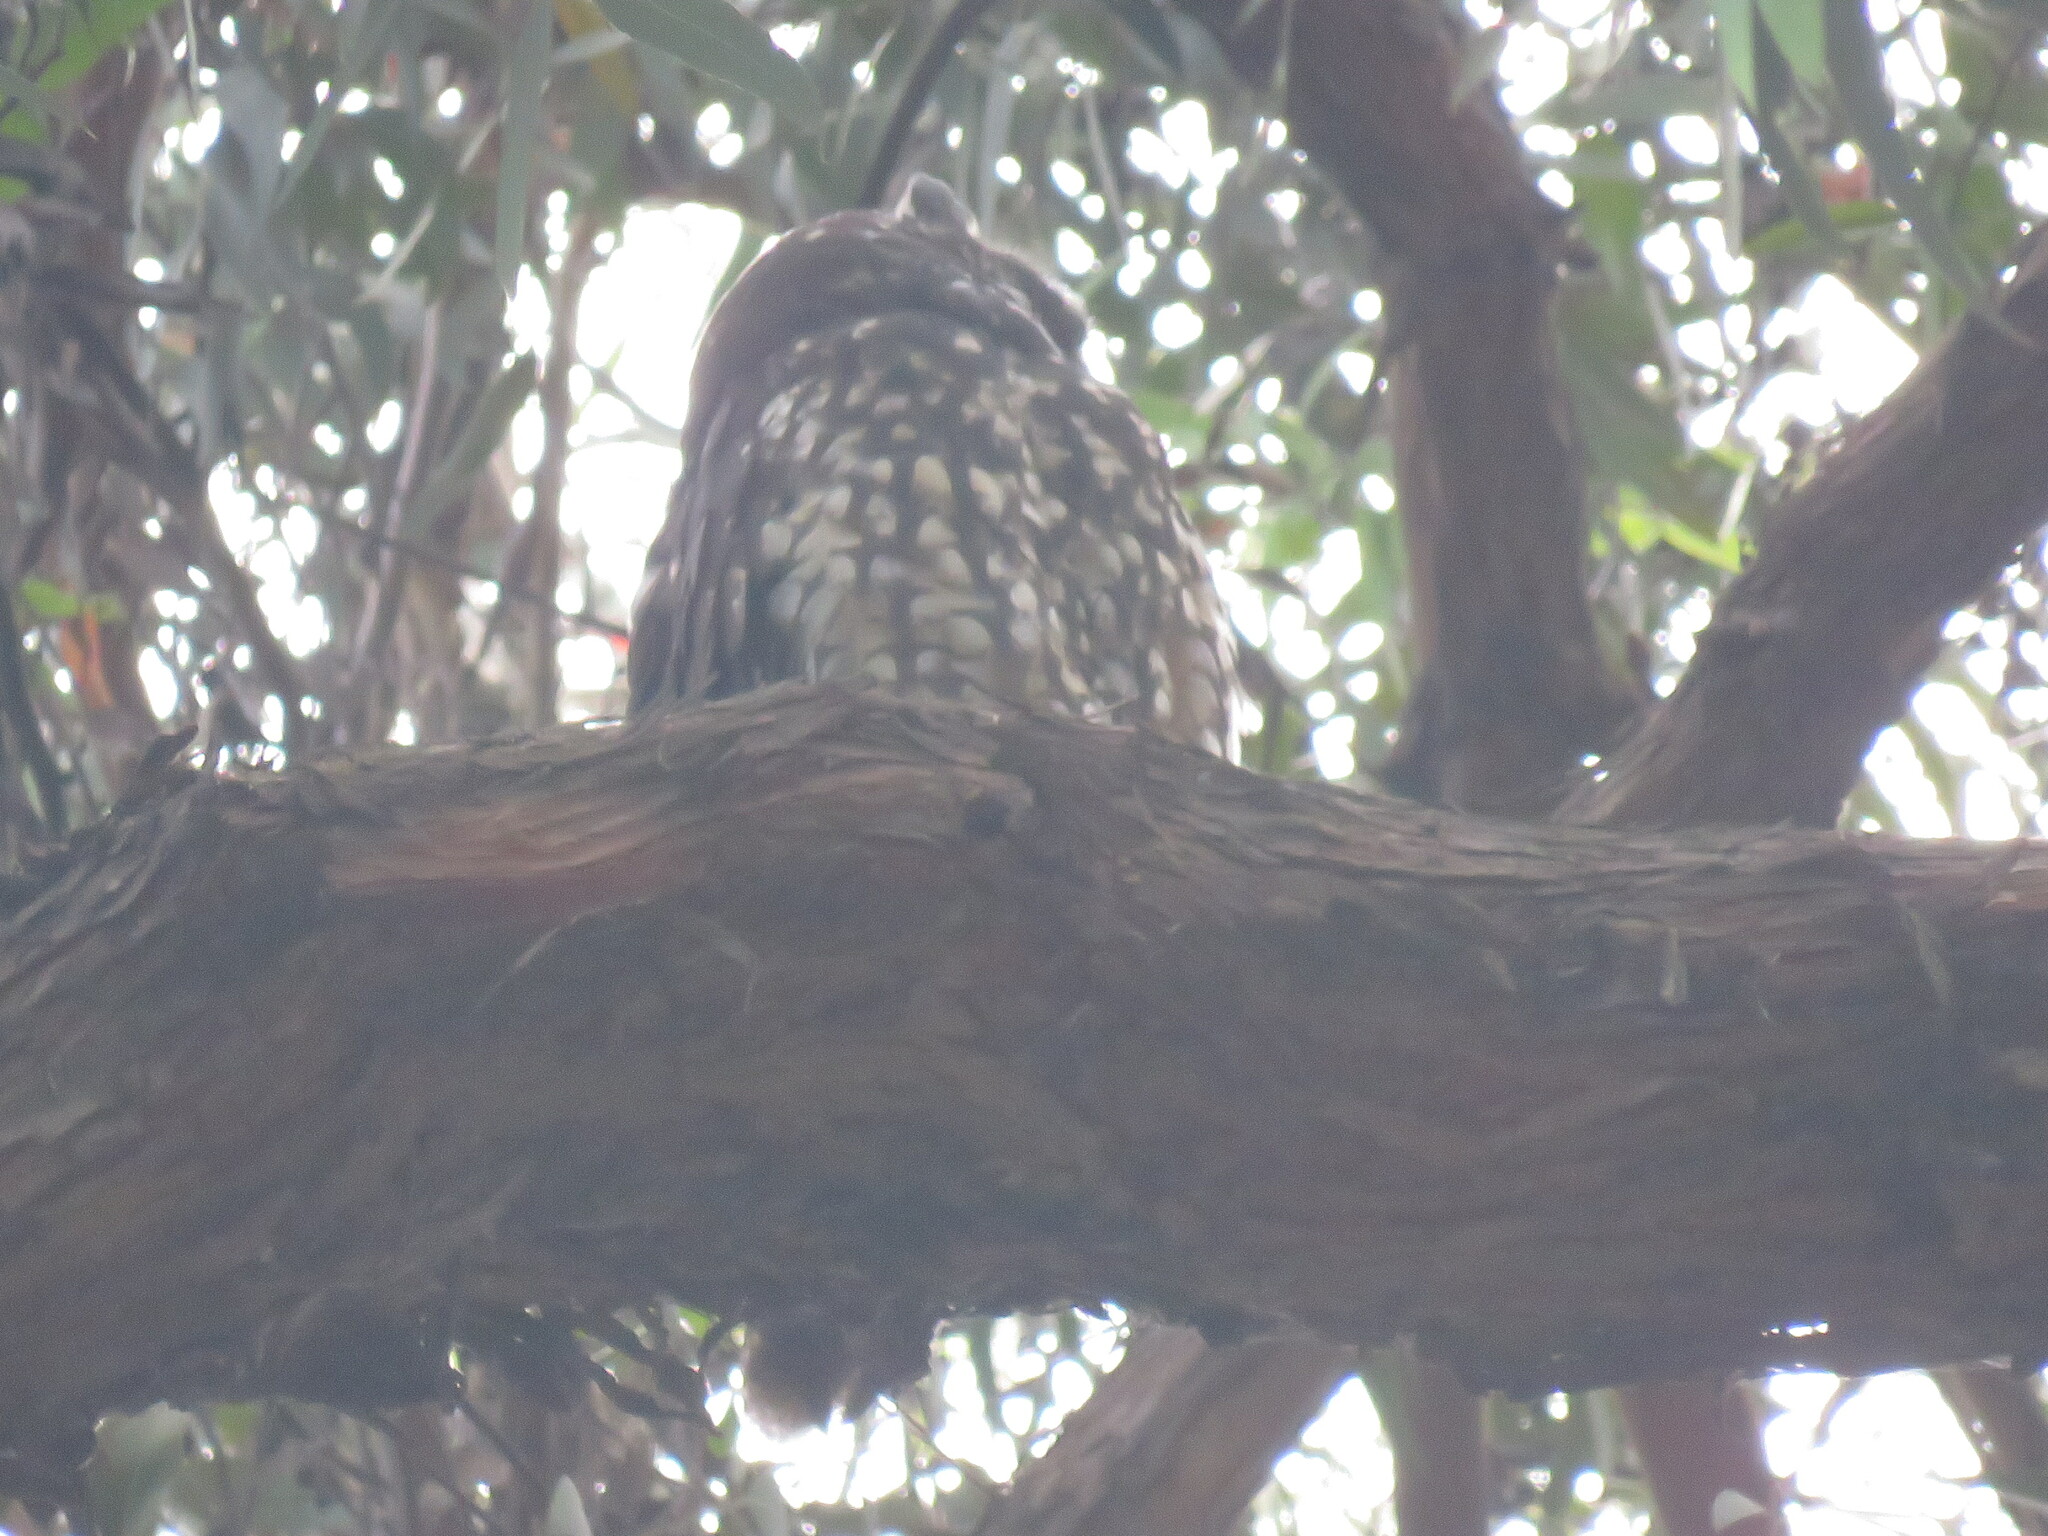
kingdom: Animalia
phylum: Chordata
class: Aves
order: Strigiformes
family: Strigidae
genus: Asio
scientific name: Asio stygius
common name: Stygian owl
